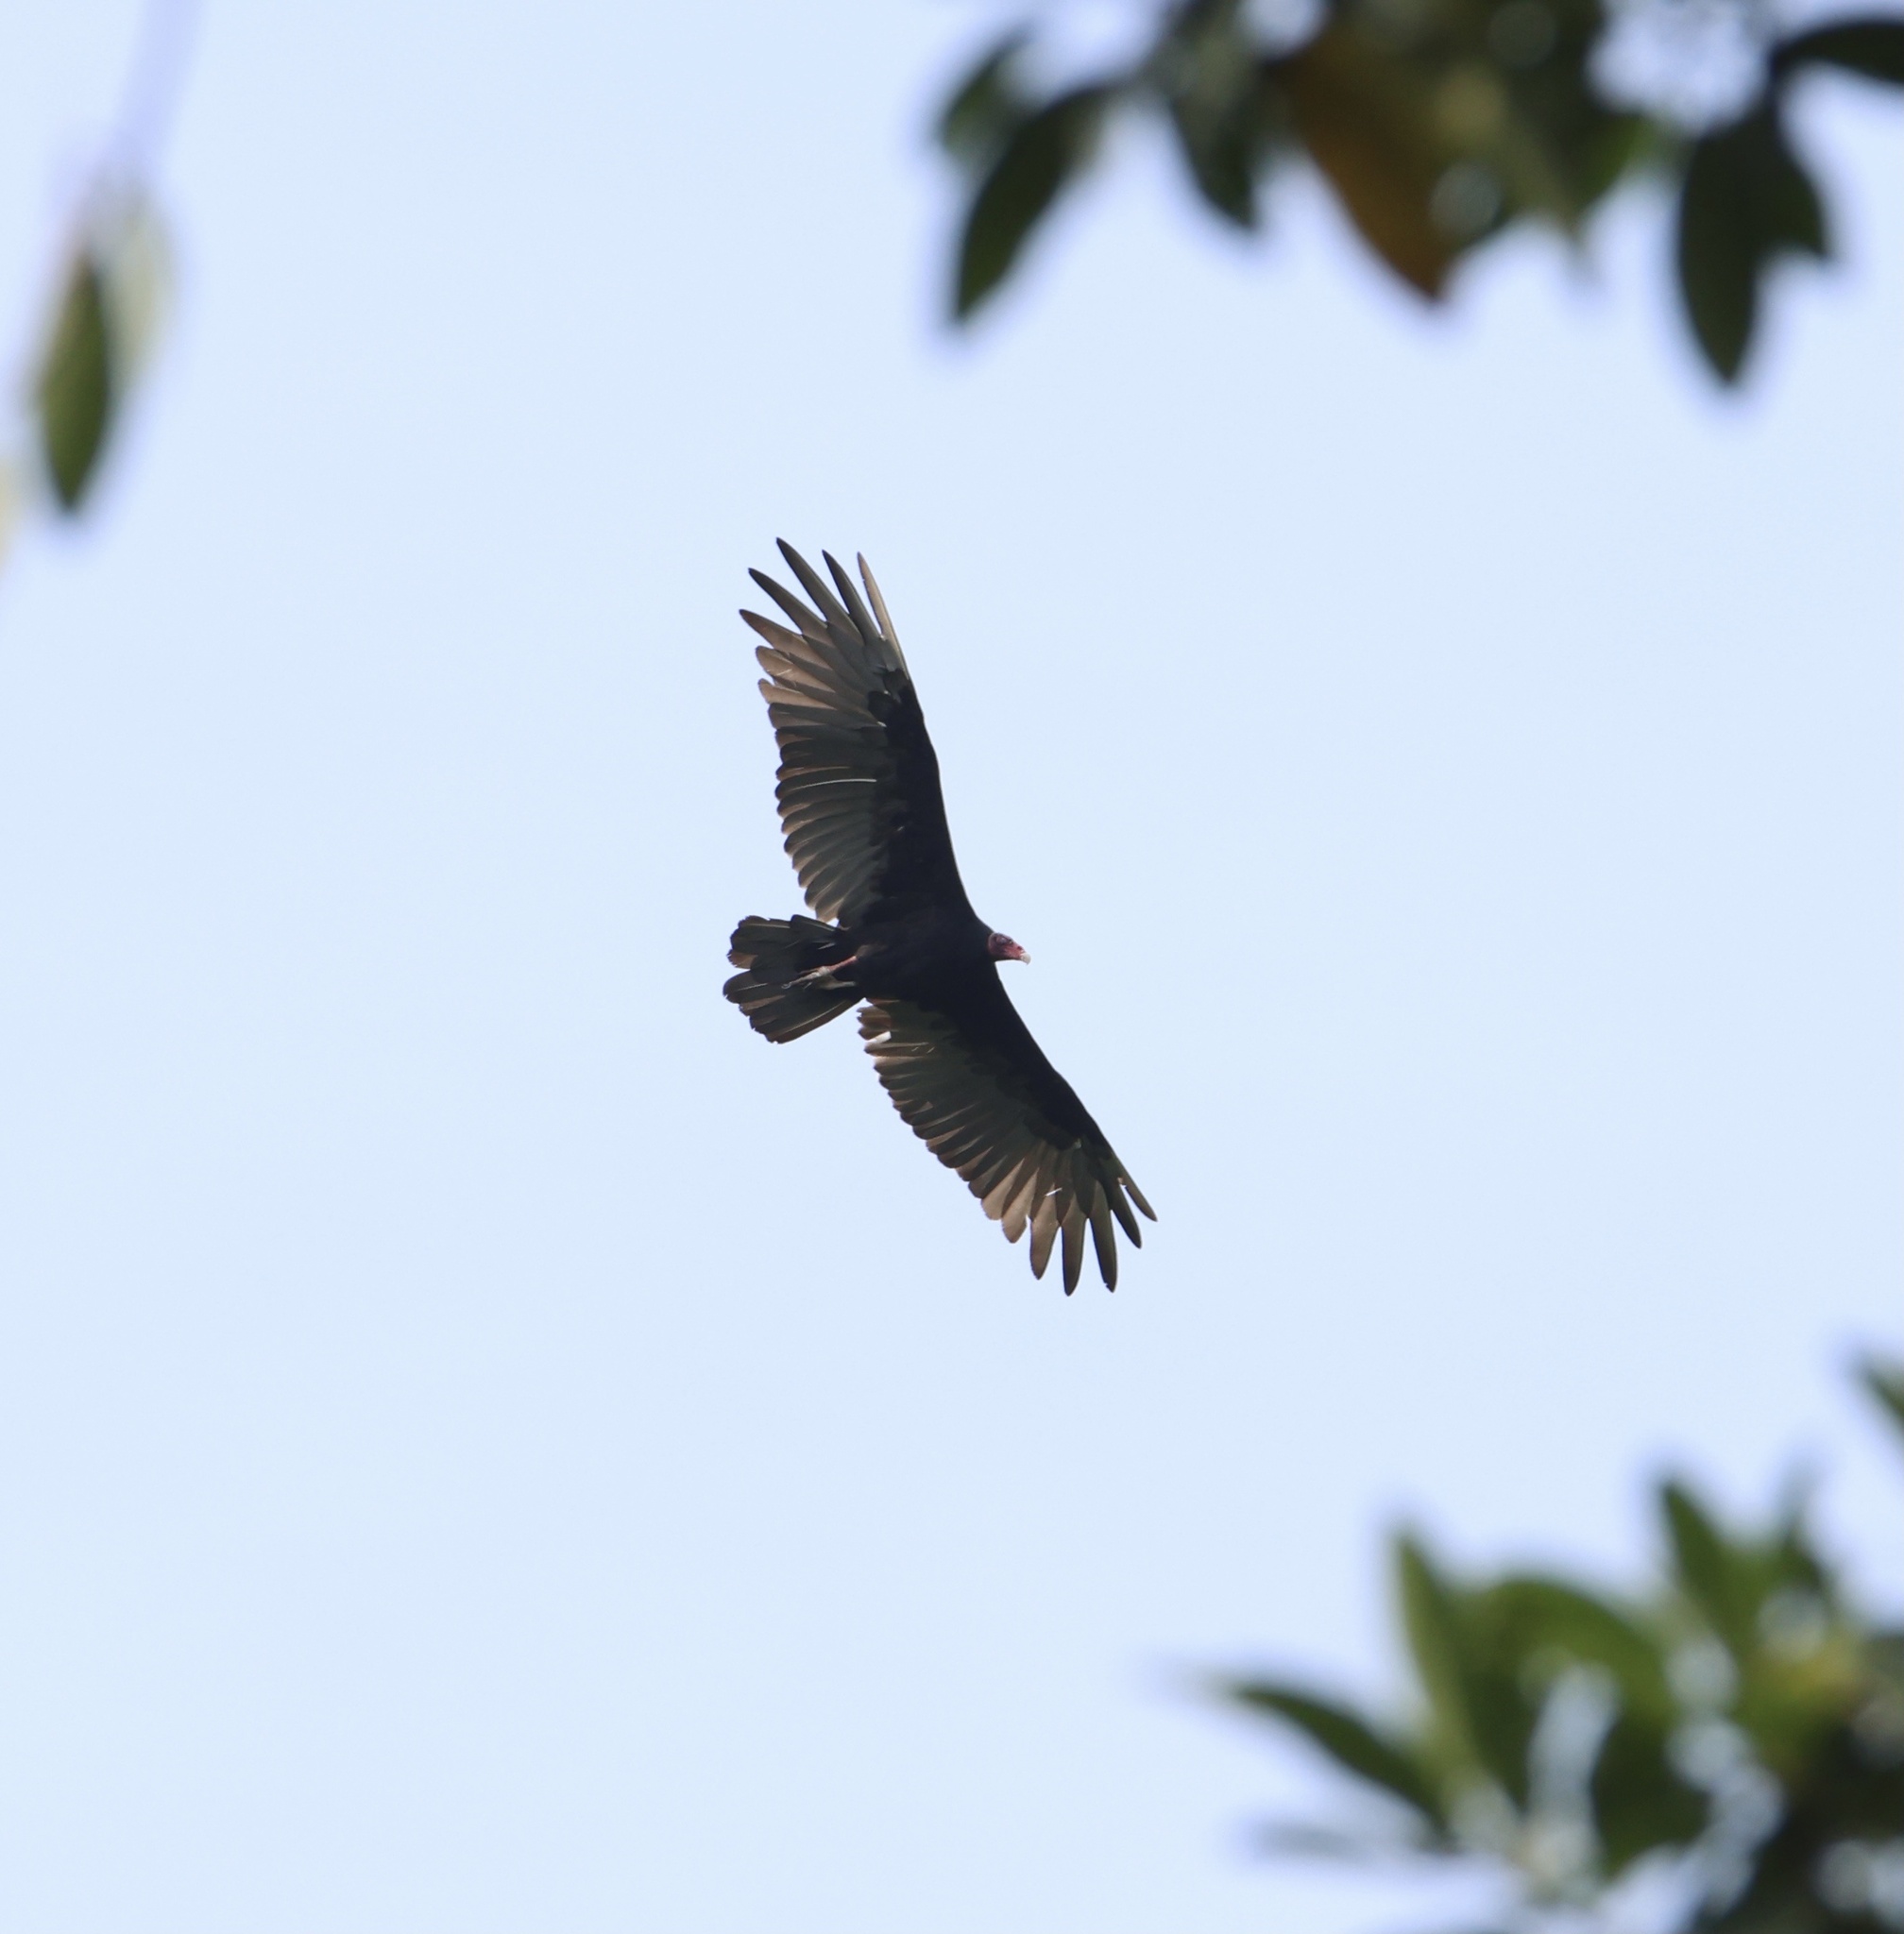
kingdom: Animalia
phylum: Chordata
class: Aves
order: Accipitriformes
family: Cathartidae
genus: Cathartes
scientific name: Cathartes aura
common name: Turkey vulture
